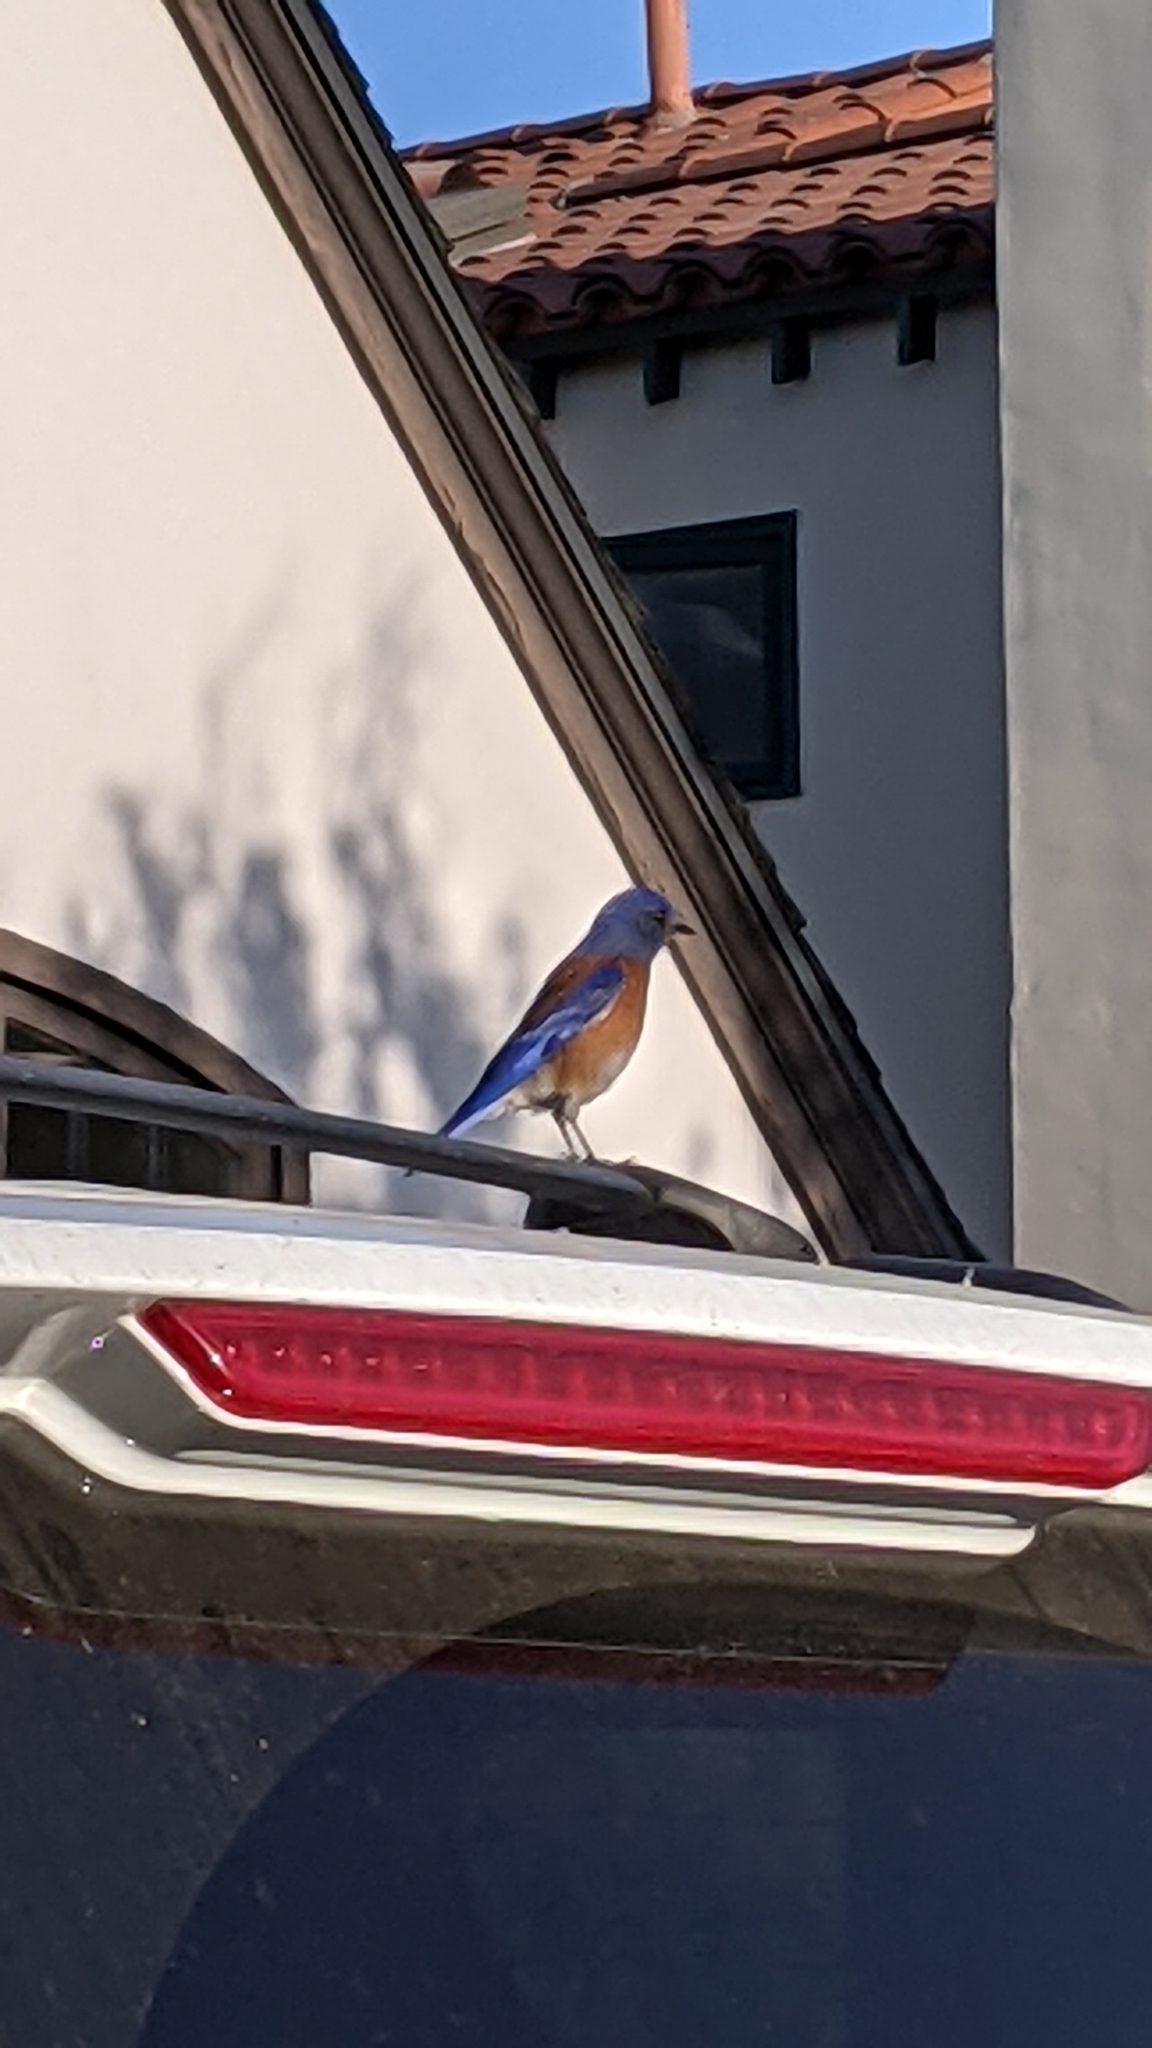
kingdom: Animalia
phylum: Chordata
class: Aves
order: Passeriformes
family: Turdidae
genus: Sialia
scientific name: Sialia mexicana
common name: Western bluebird
